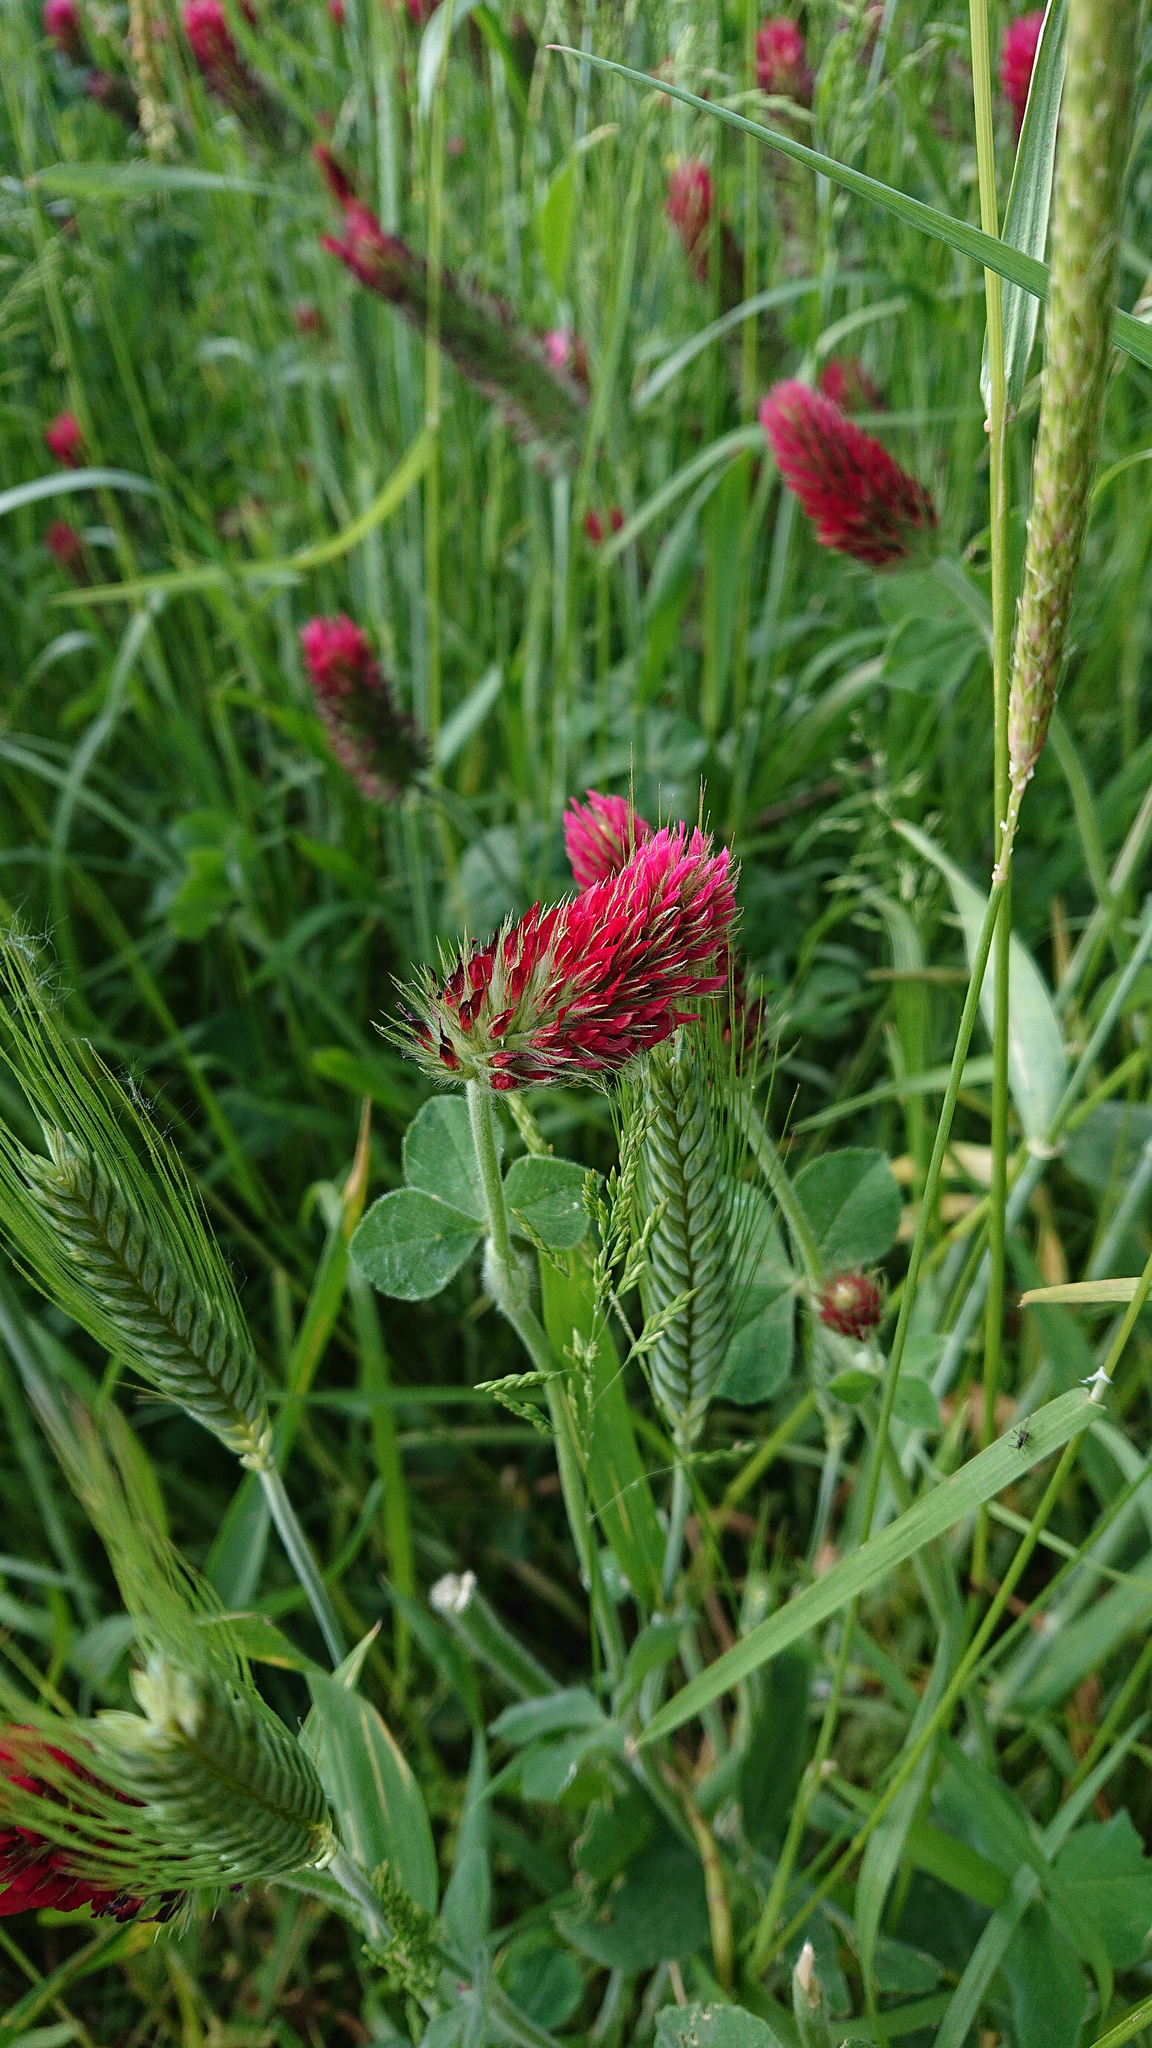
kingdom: Plantae
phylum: Tracheophyta
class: Magnoliopsida
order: Fabales
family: Fabaceae
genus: Trifolium
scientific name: Trifolium incarnatum
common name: Crimson clover
